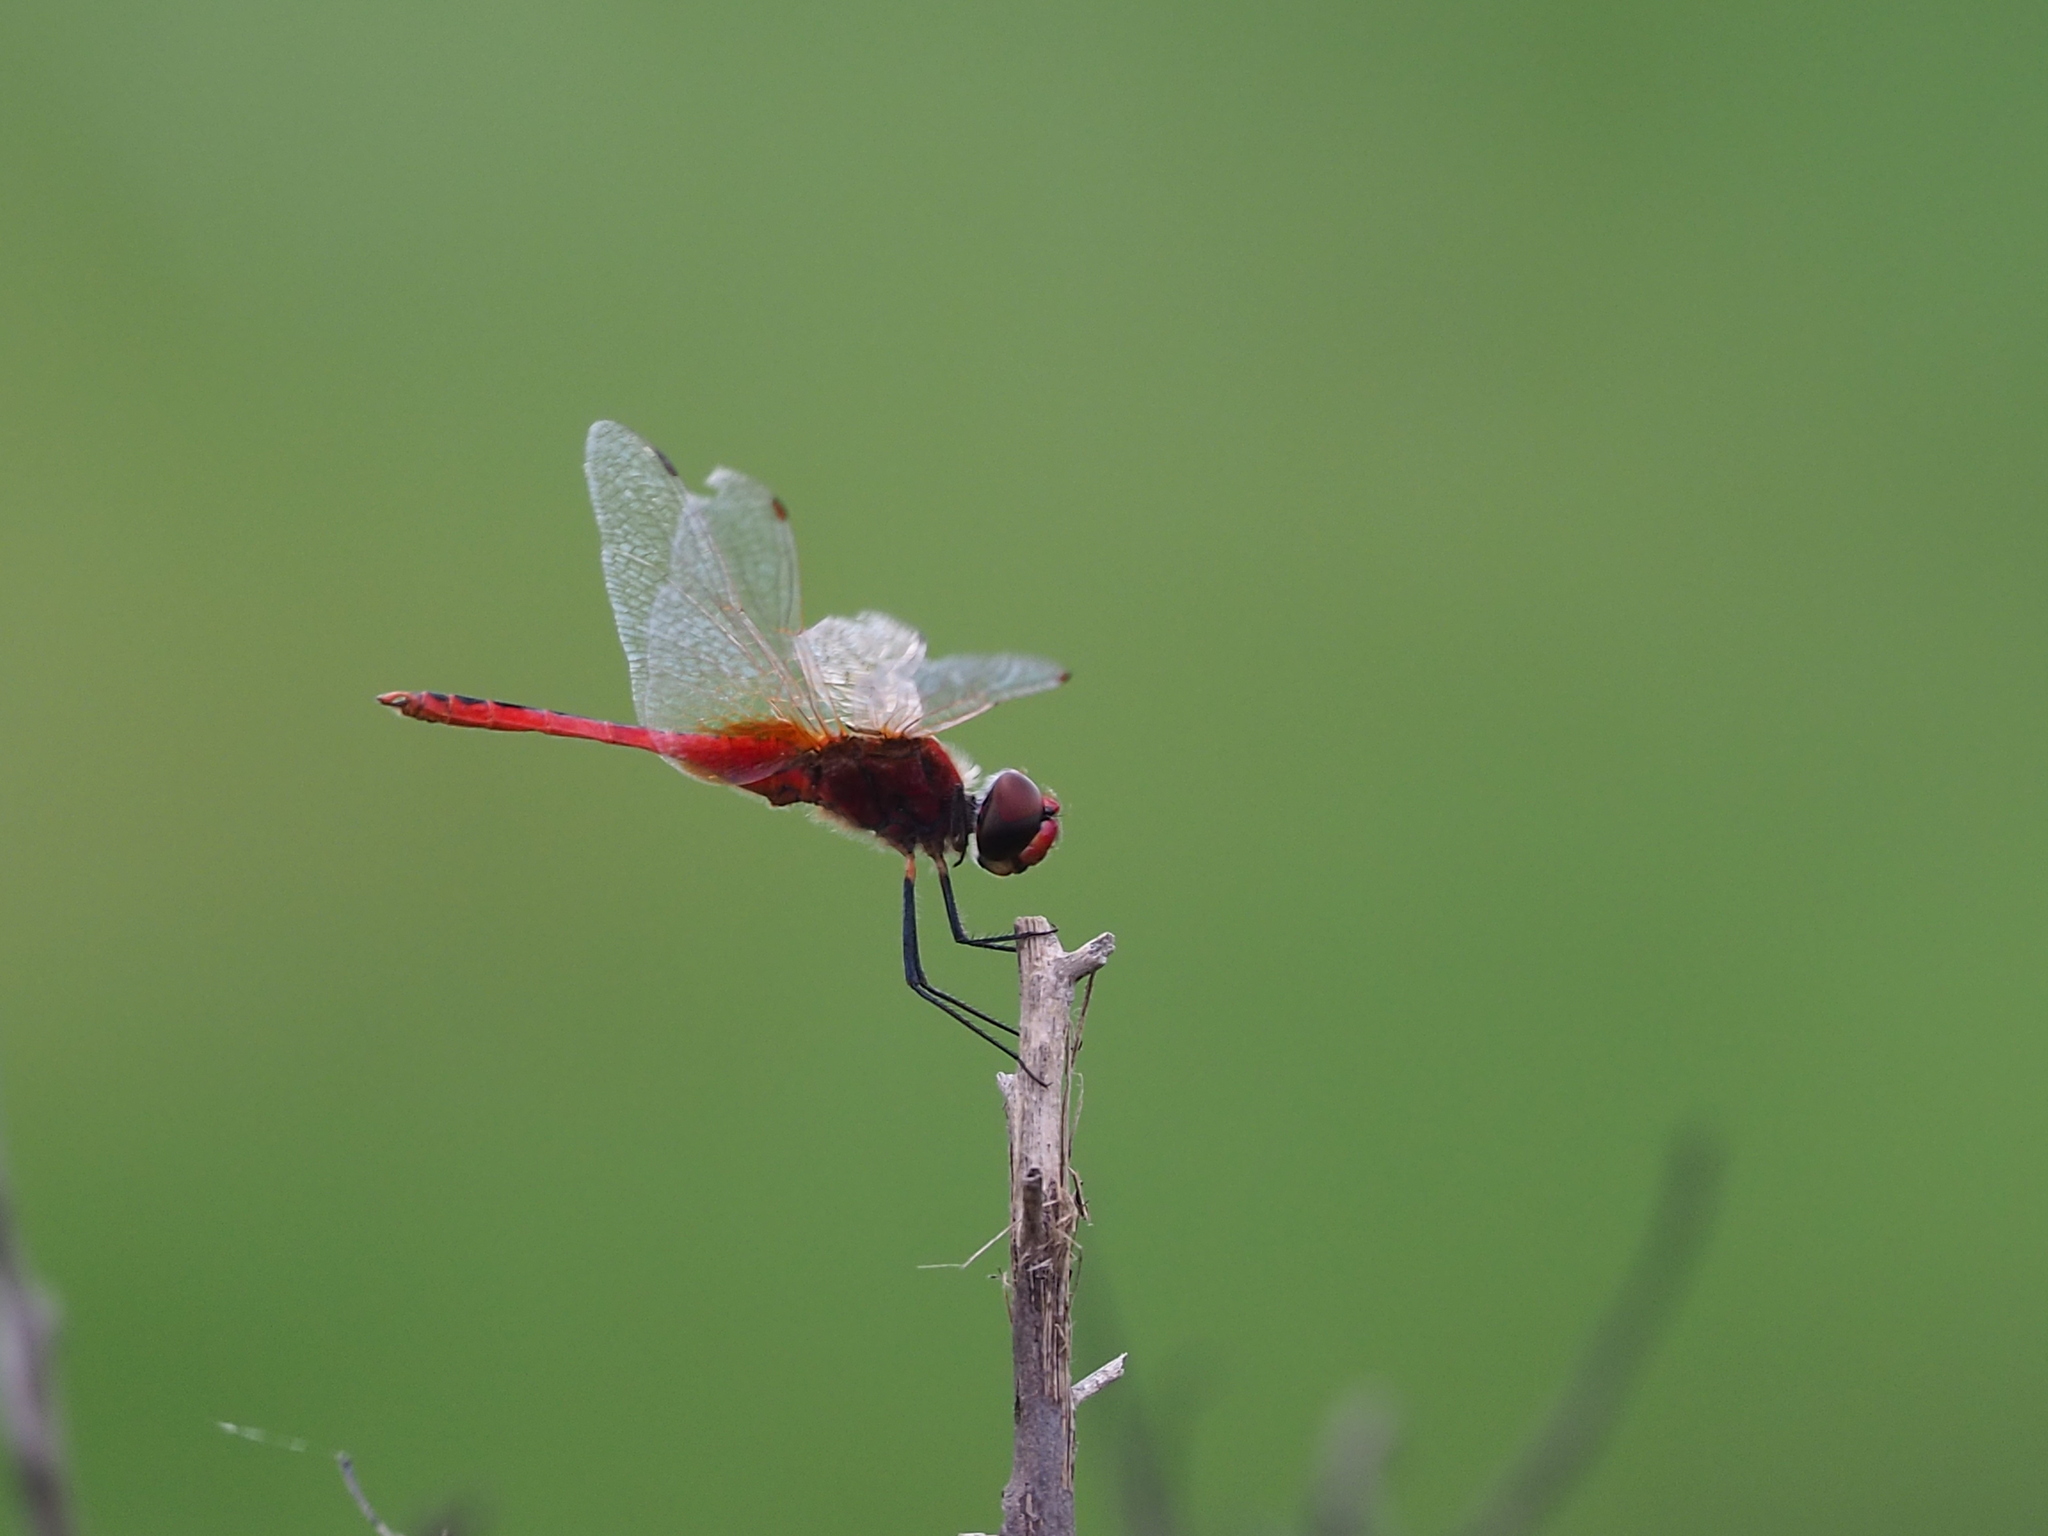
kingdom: Animalia
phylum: Arthropoda
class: Insecta
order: Odonata
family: Libellulidae
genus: Macrodiplax
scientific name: Macrodiplax cora
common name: Coastal glider
